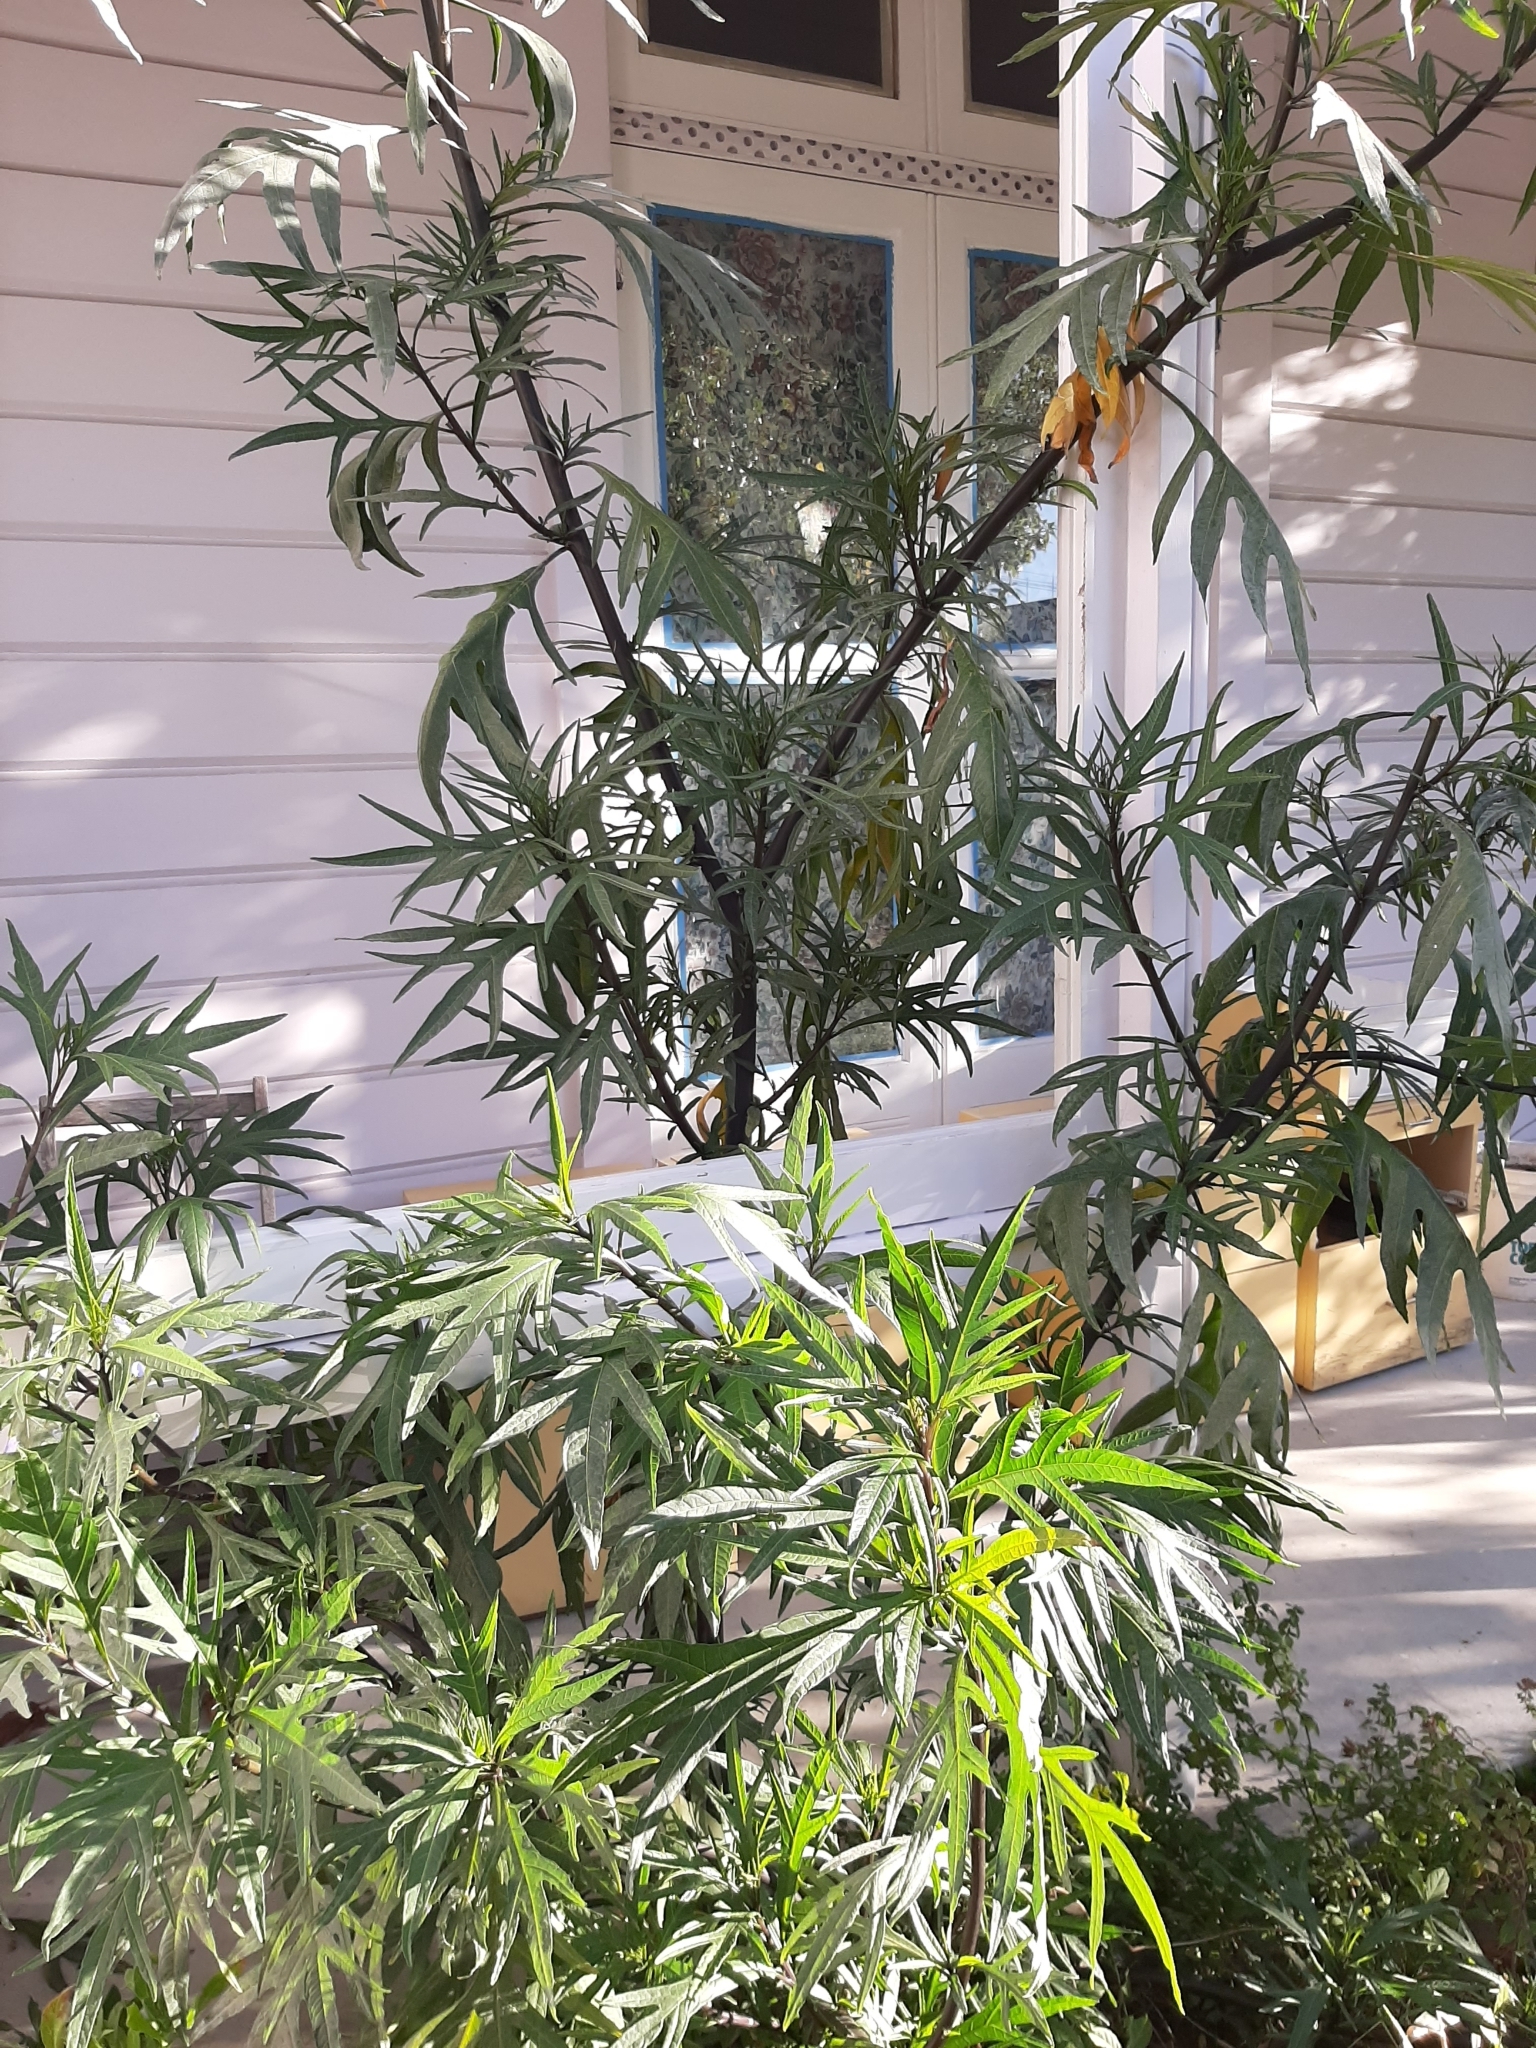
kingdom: Plantae
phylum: Tracheophyta
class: Magnoliopsida
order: Solanales
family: Solanaceae
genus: Solanum
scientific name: Solanum laciniatum
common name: Kangaroo-apple
